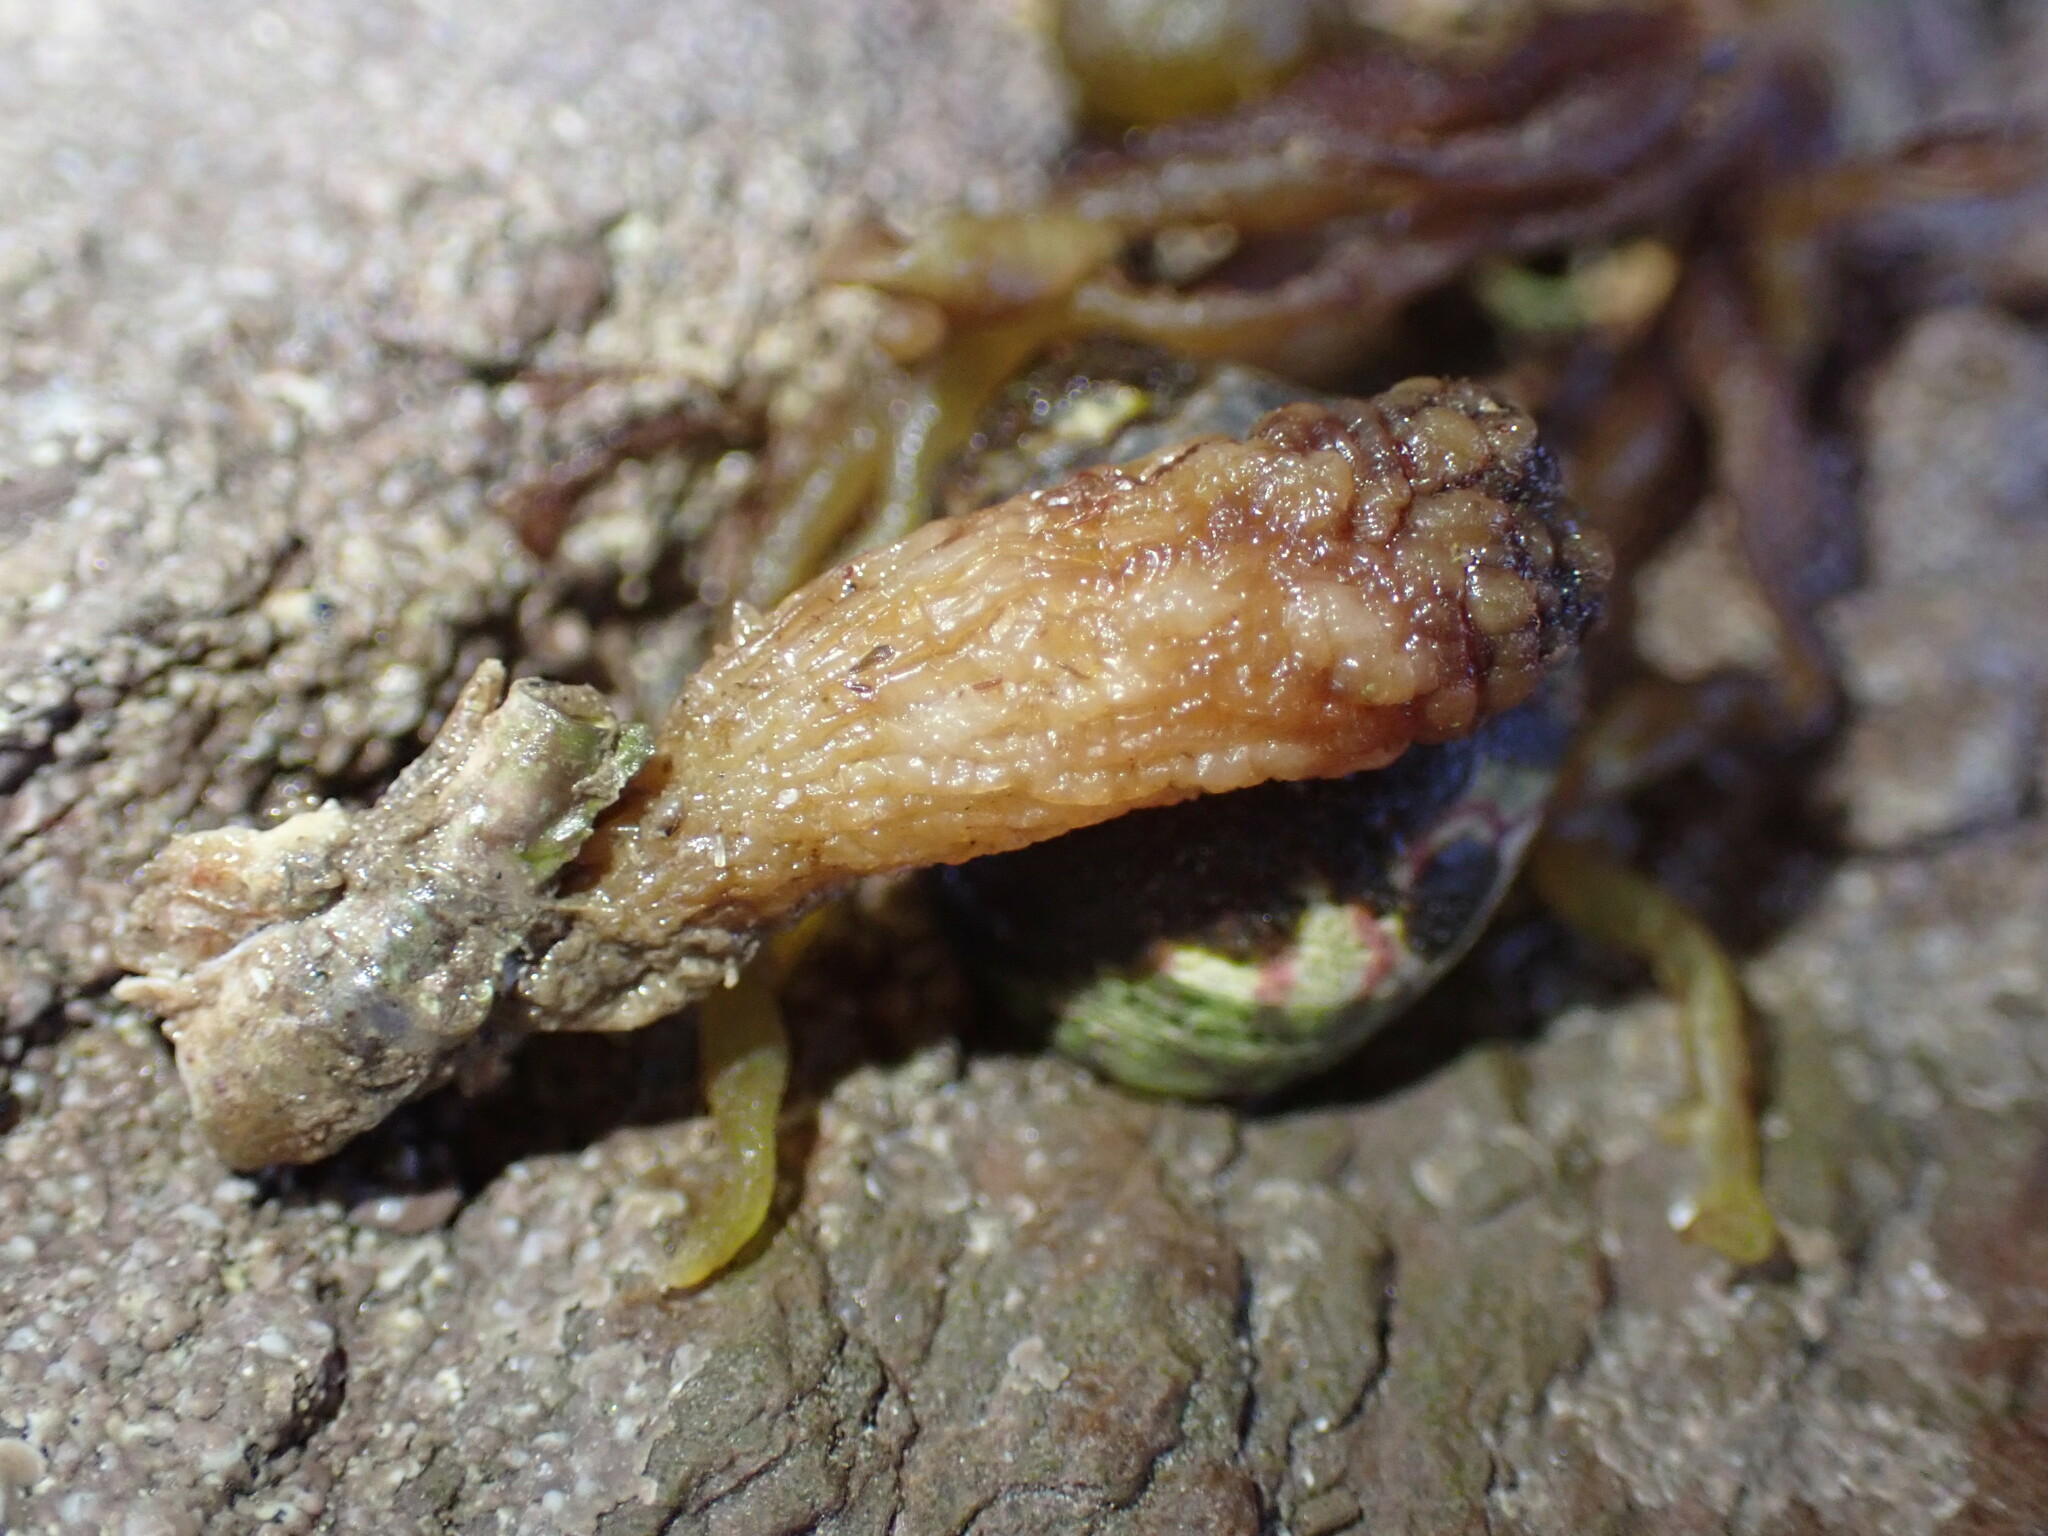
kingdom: Animalia
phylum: Chordata
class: Ascidiacea
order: Stolidobranchia
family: Styelidae
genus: Styela
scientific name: Styela clava
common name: Leathery sea squirt
